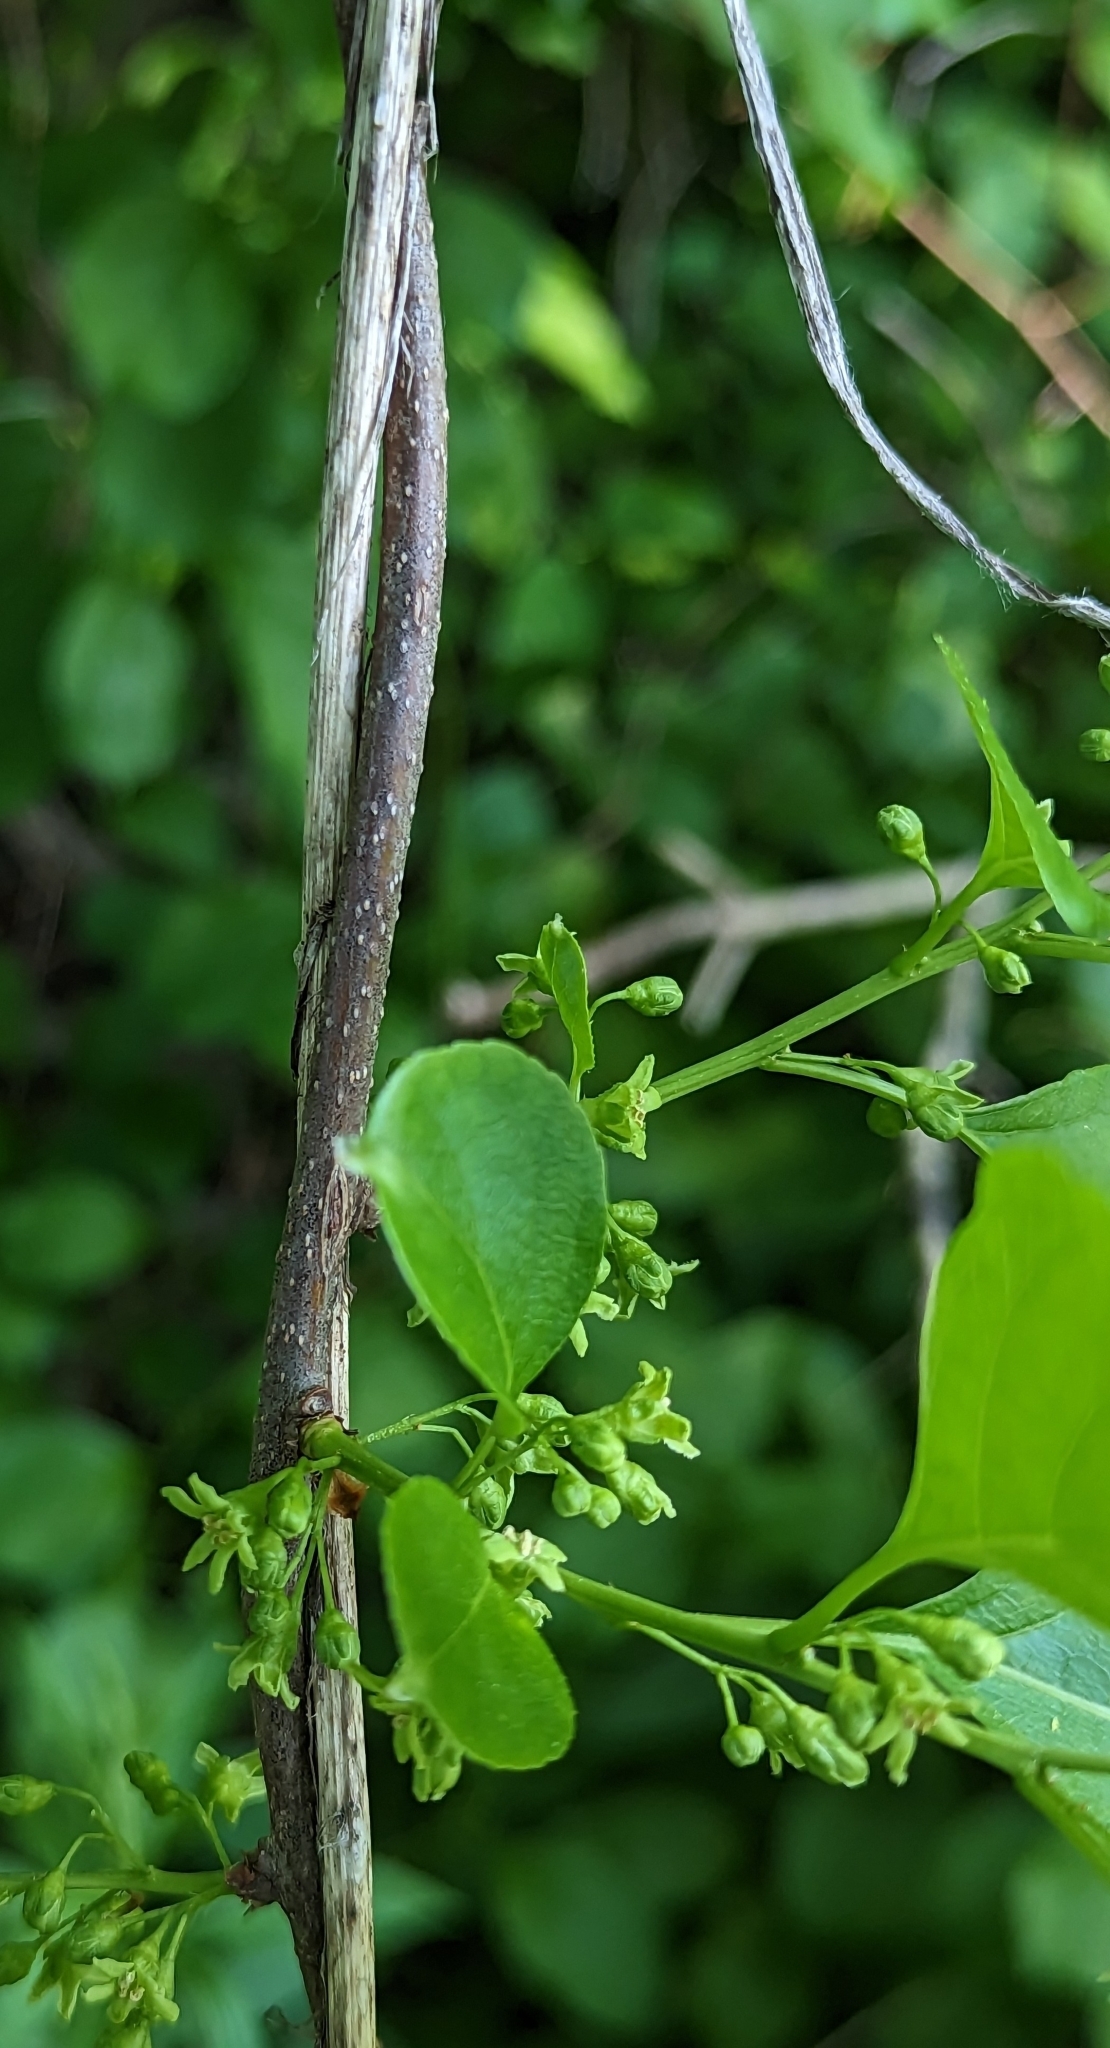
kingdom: Plantae
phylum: Tracheophyta
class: Magnoliopsida
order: Celastrales
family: Celastraceae
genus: Celastrus
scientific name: Celastrus orbiculatus
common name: Oriental bittersweet
